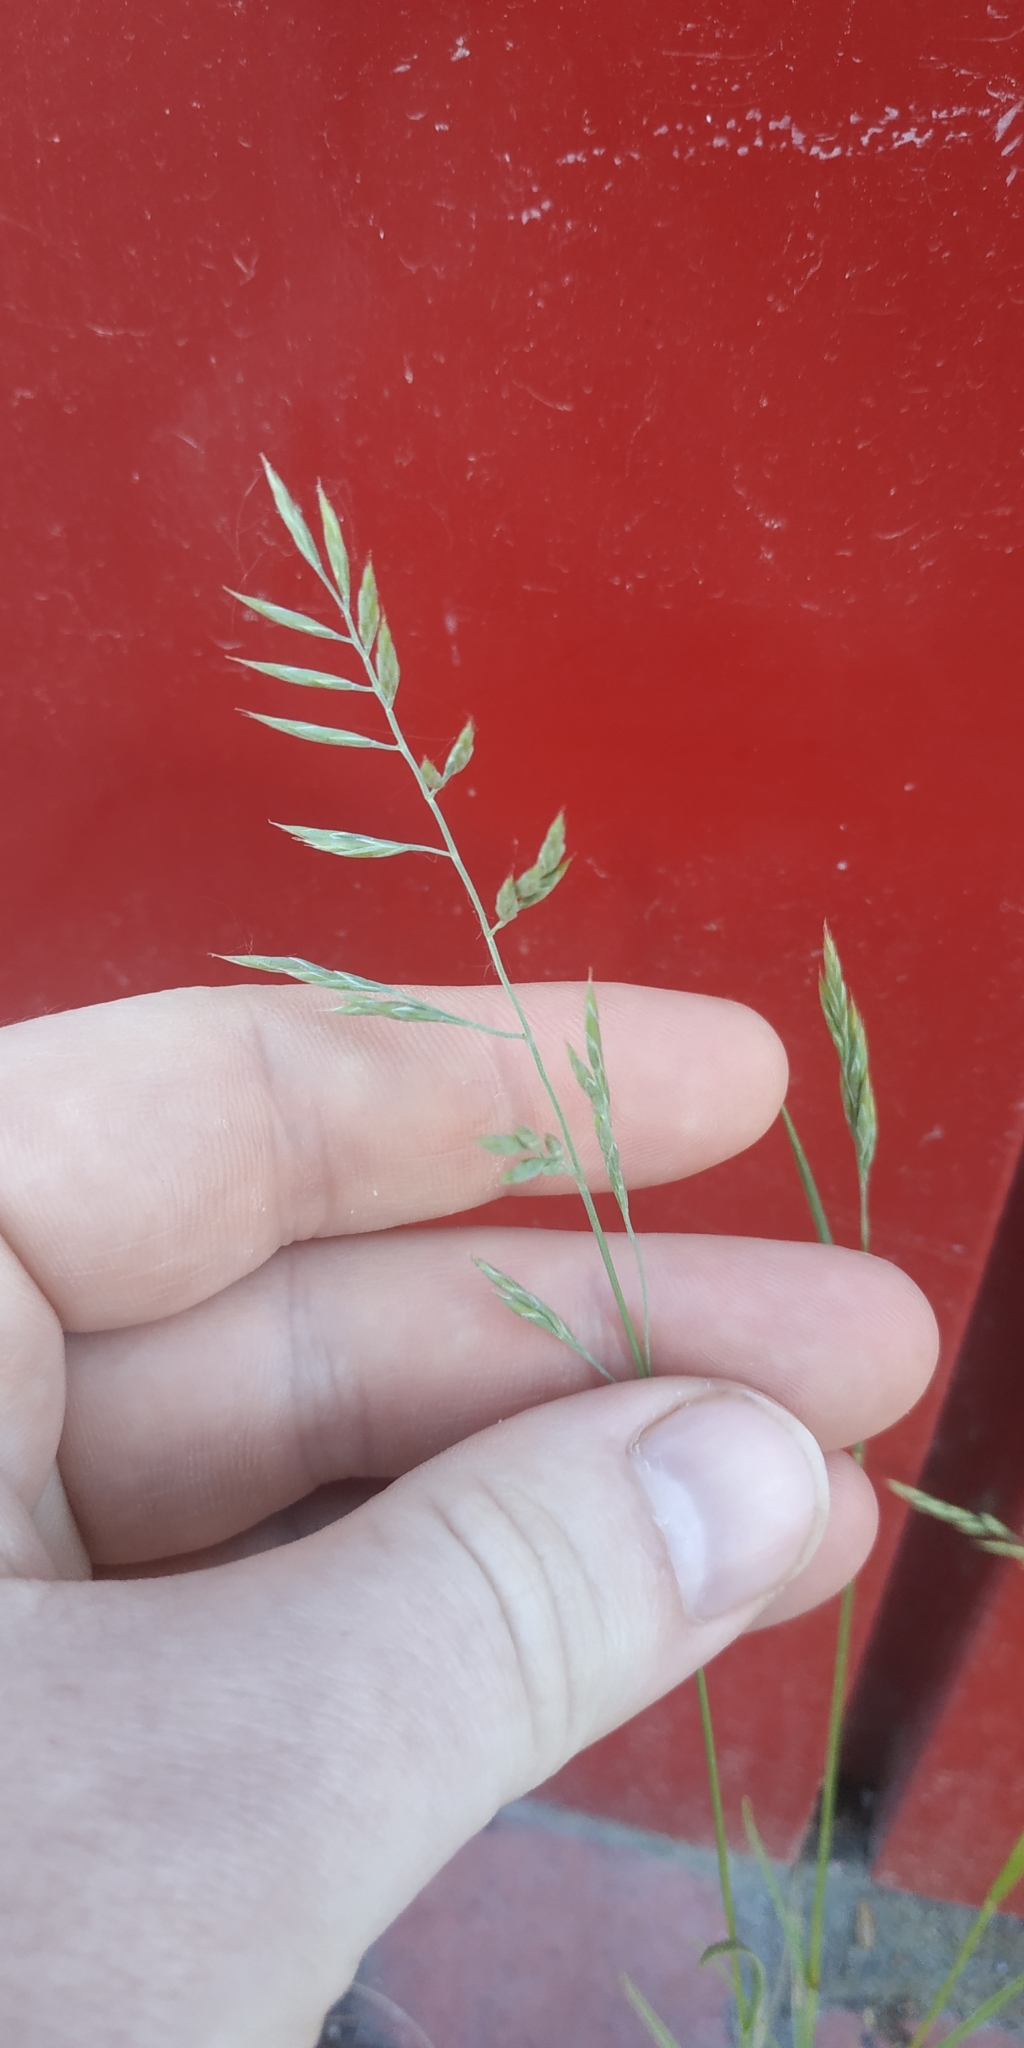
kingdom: Plantae
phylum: Tracheophyta
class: Liliopsida
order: Poales
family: Poaceae
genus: Festuca
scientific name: Festuca rubra
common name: Red fescue
